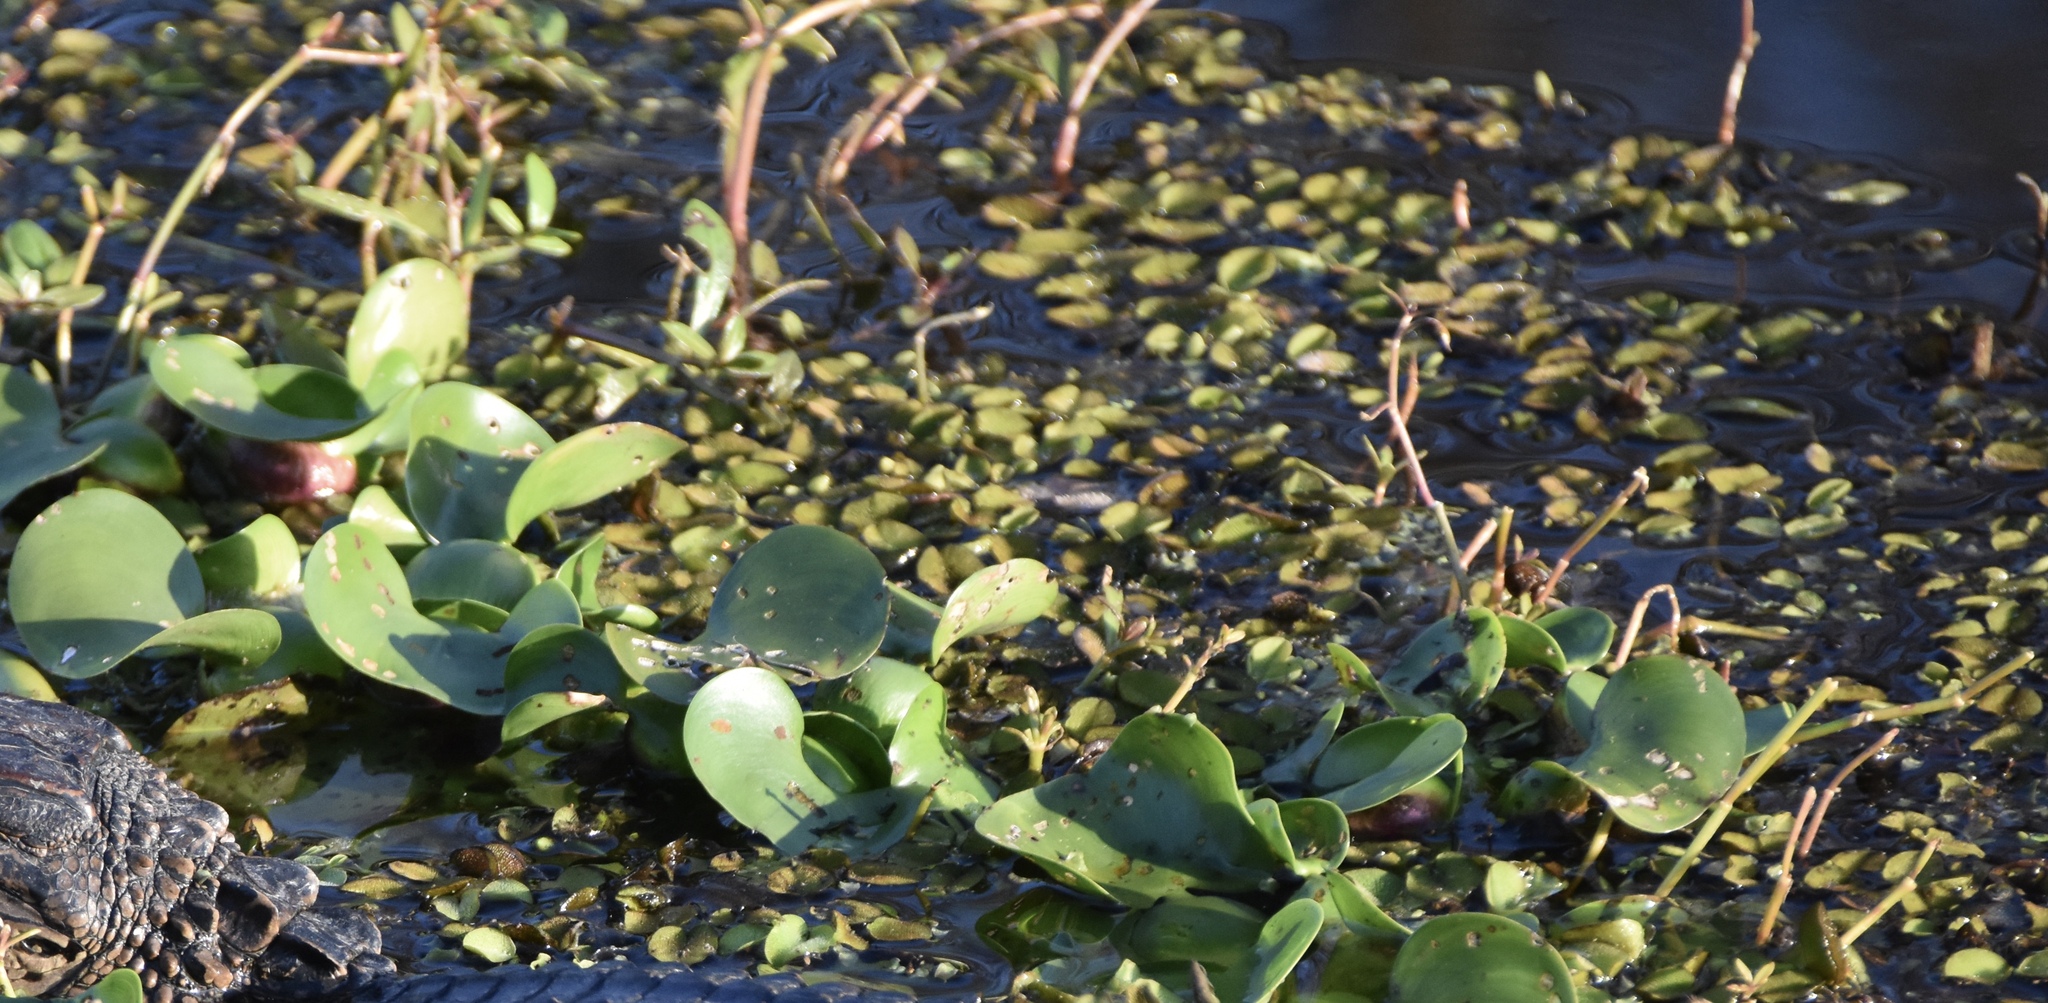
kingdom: Plantae
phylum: Tracheophyta
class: Liliopsida
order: Commelinales
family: Pontederiaceae
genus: Pontederia
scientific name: Pontederia crassipes
